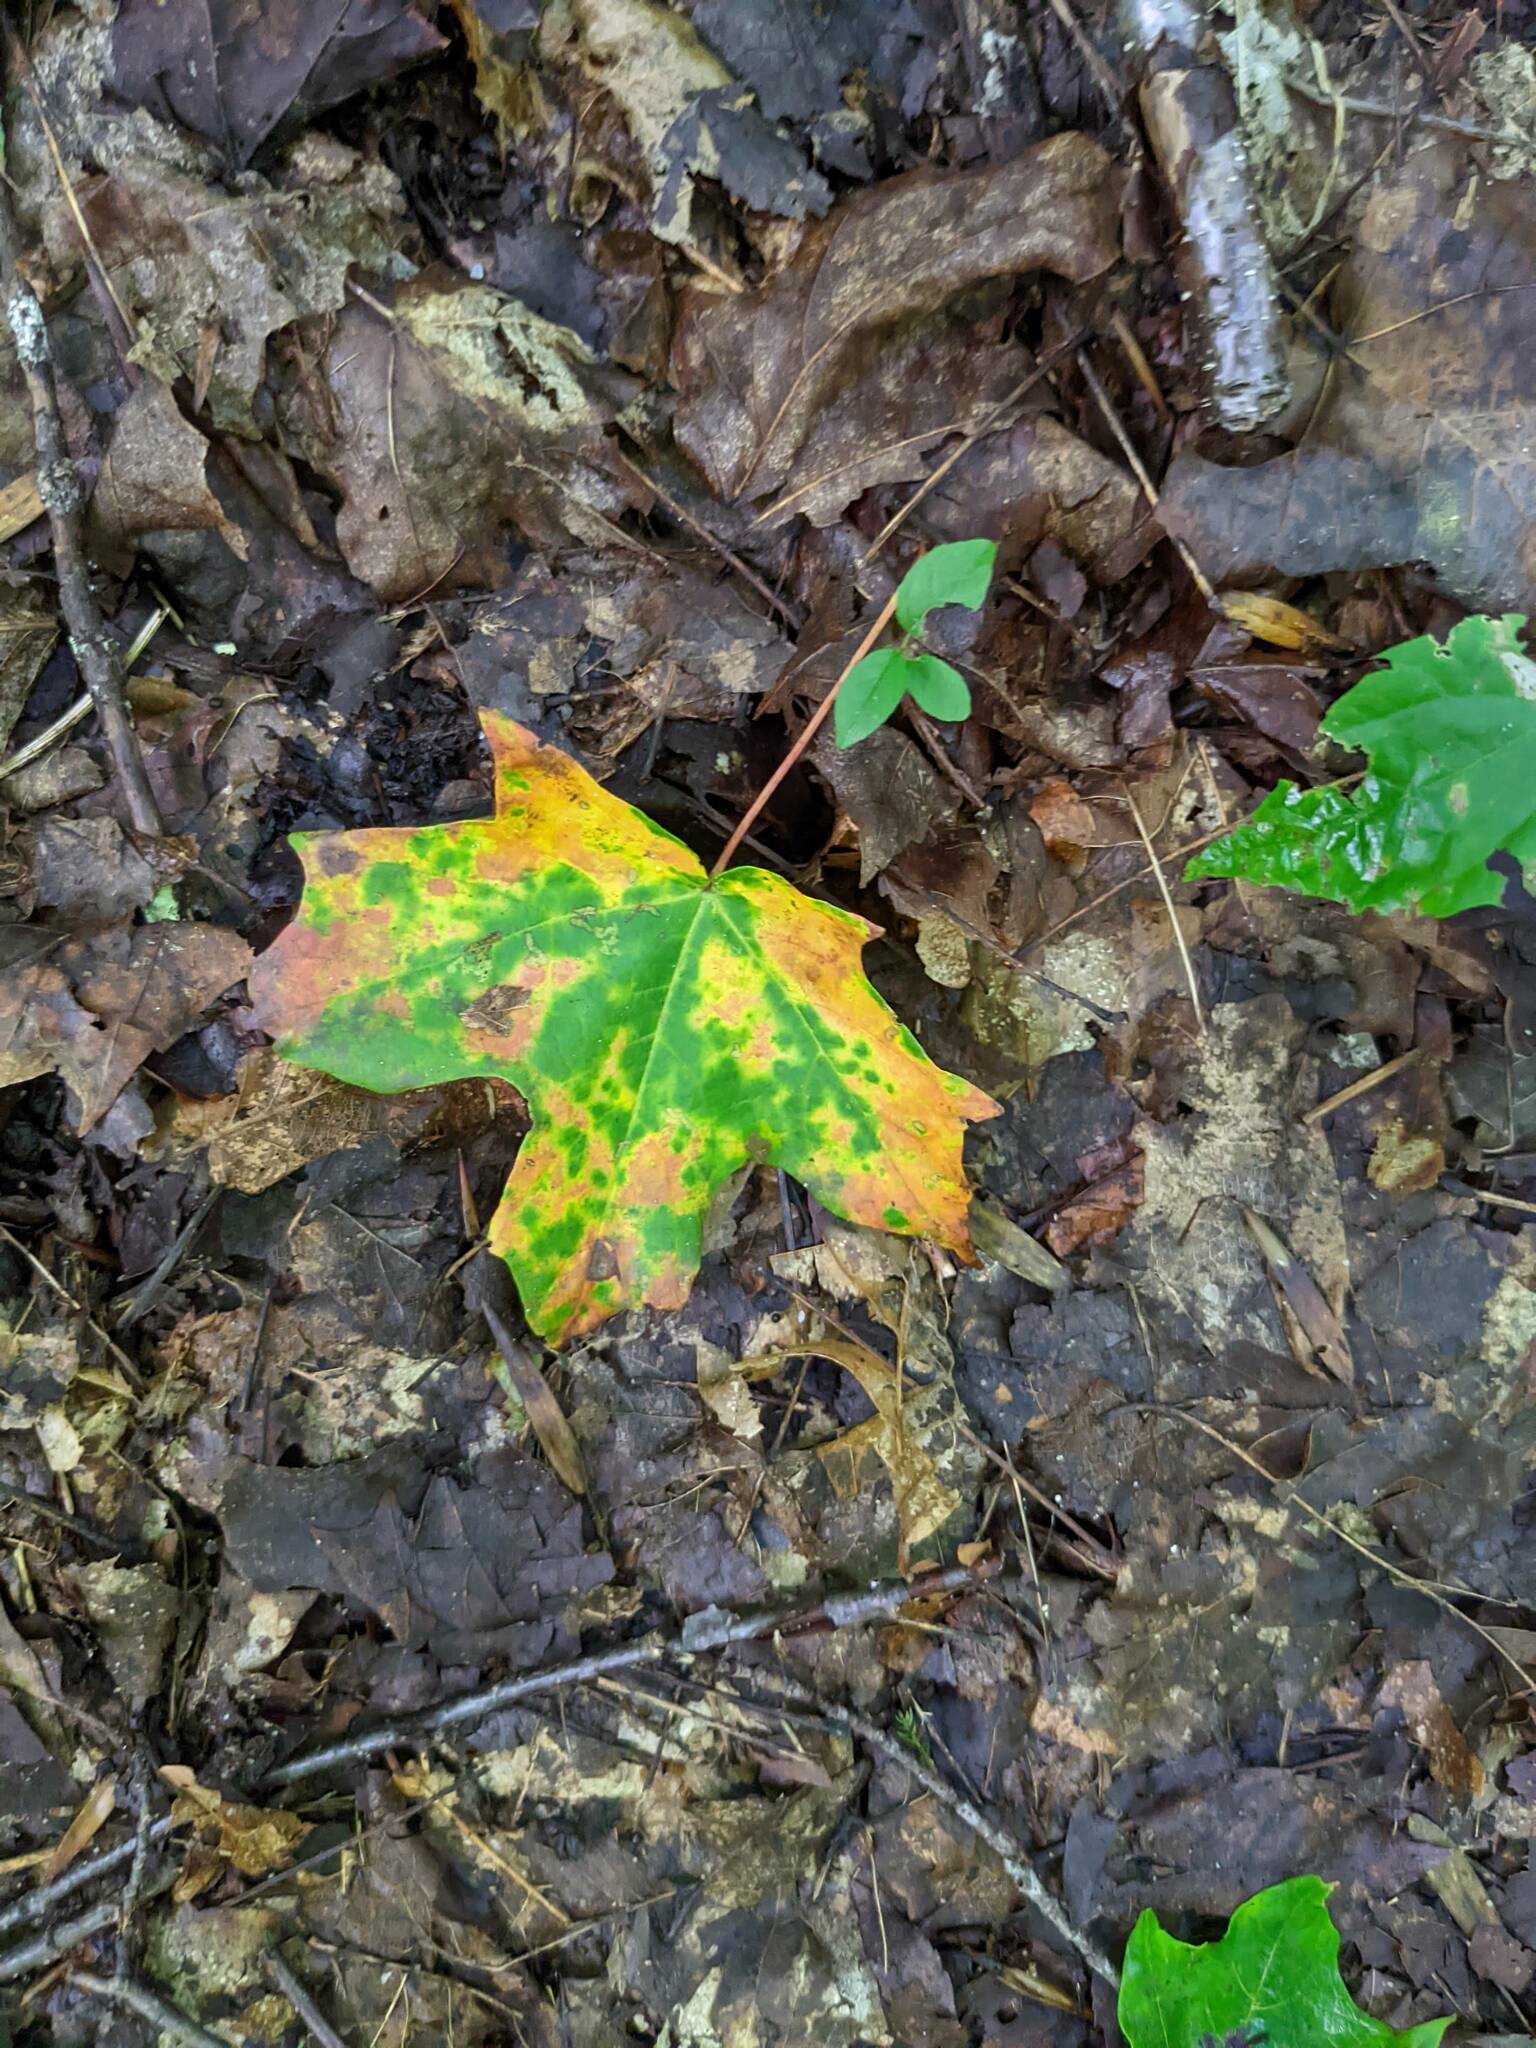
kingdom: Plantae
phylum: Tracheophyta
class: Magnoliopsida
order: Sapindales
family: Sapindaceae
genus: Acer
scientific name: Acer saccharum
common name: Sugar maple
